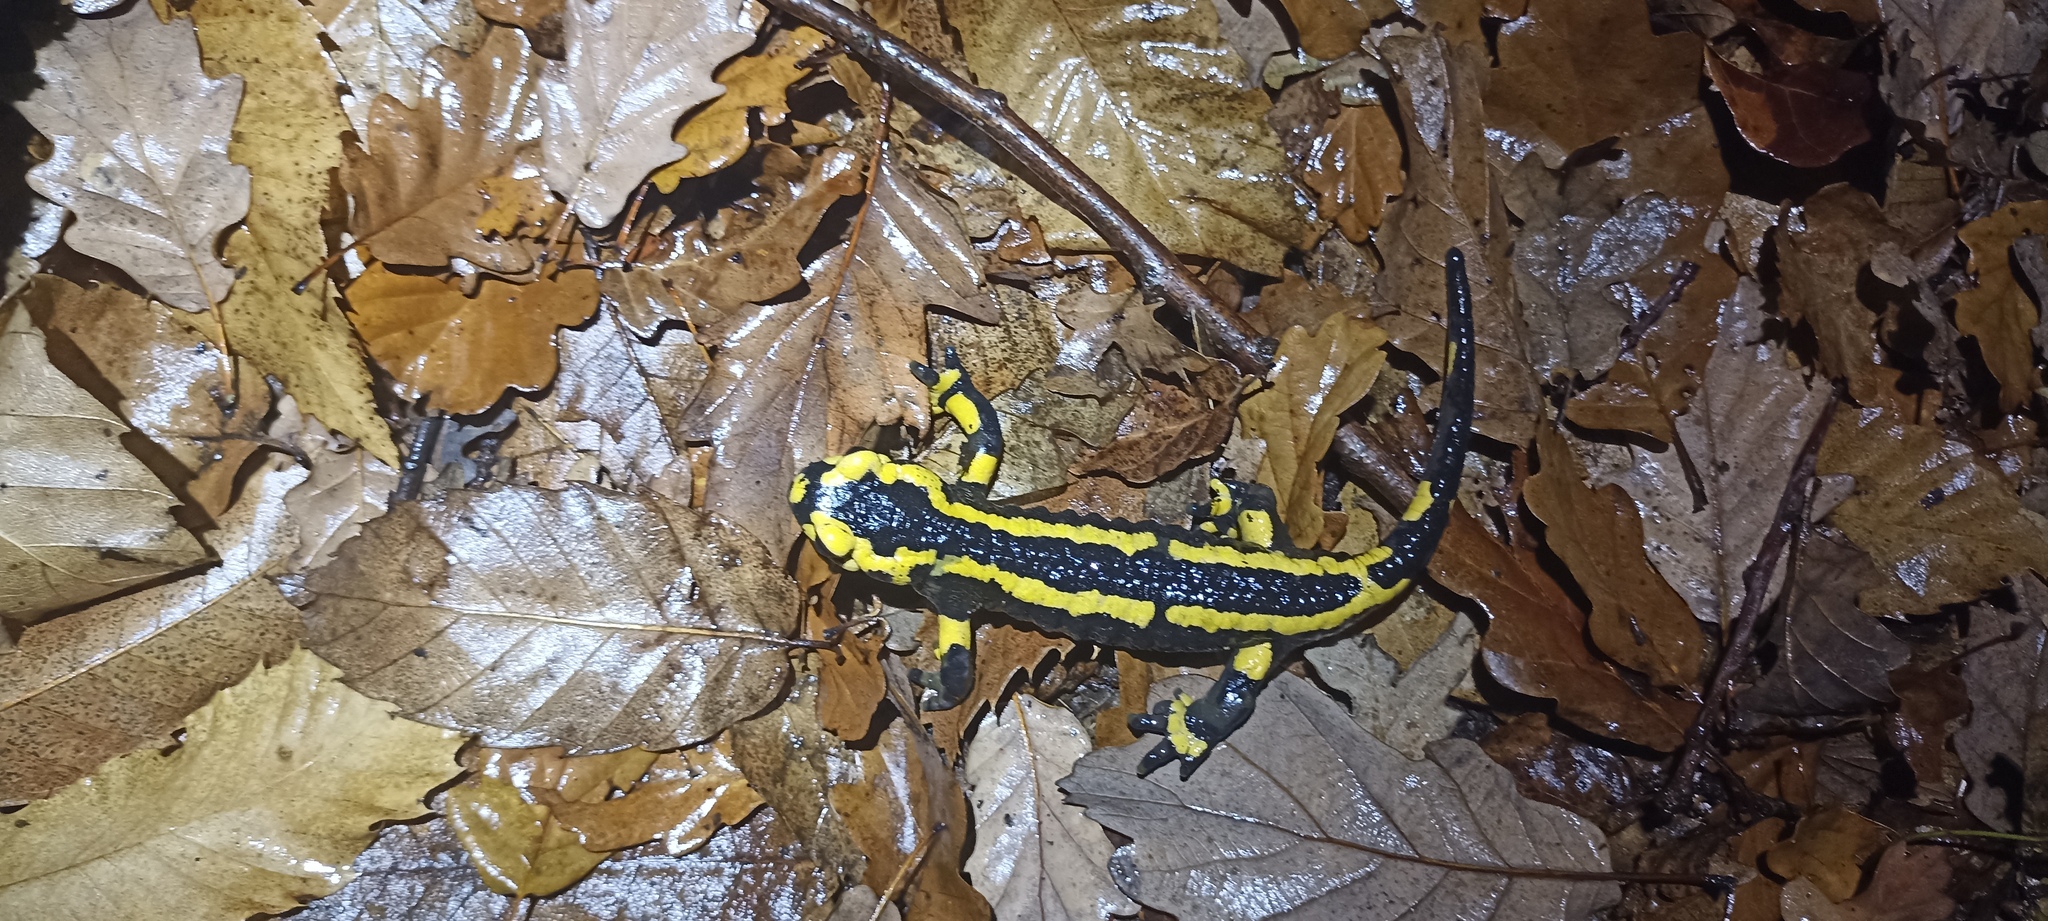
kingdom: Animalia
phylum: Chordata
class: Amphibia
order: Caudata
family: Salamandridae
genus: Salamandra
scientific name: Salamandra salamandra
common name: Fire salamander
